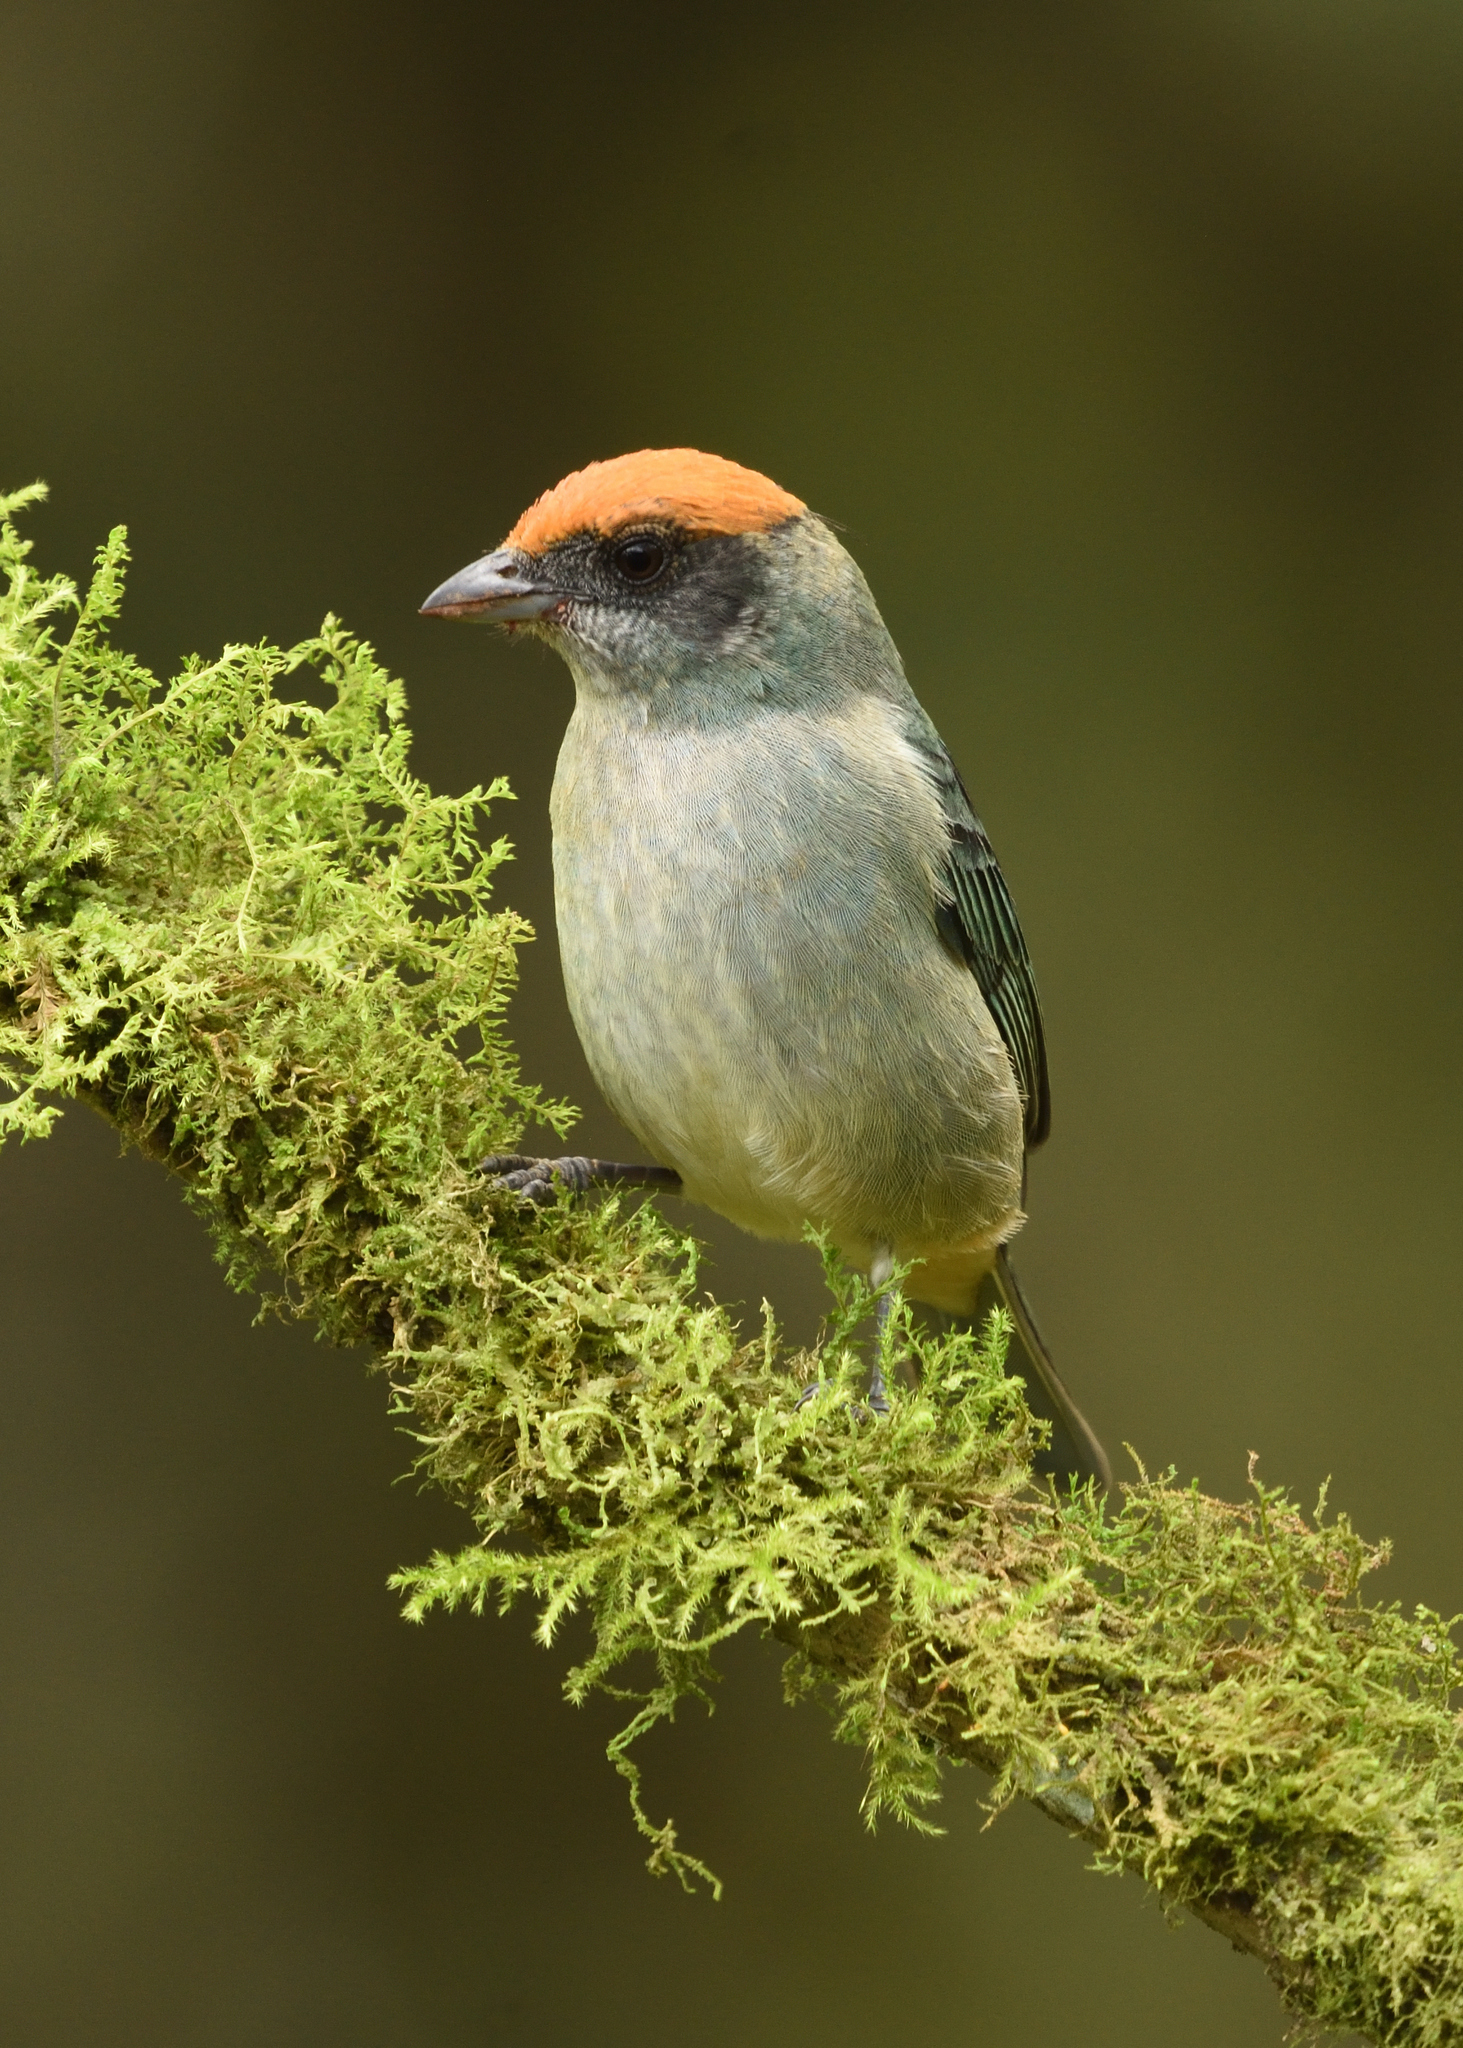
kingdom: Animalia
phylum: Chordata
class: Aves
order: Passeriformes
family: Thraupidae
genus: Stilpnia
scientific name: Stilpnia vitriolina
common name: Scrub tanager
